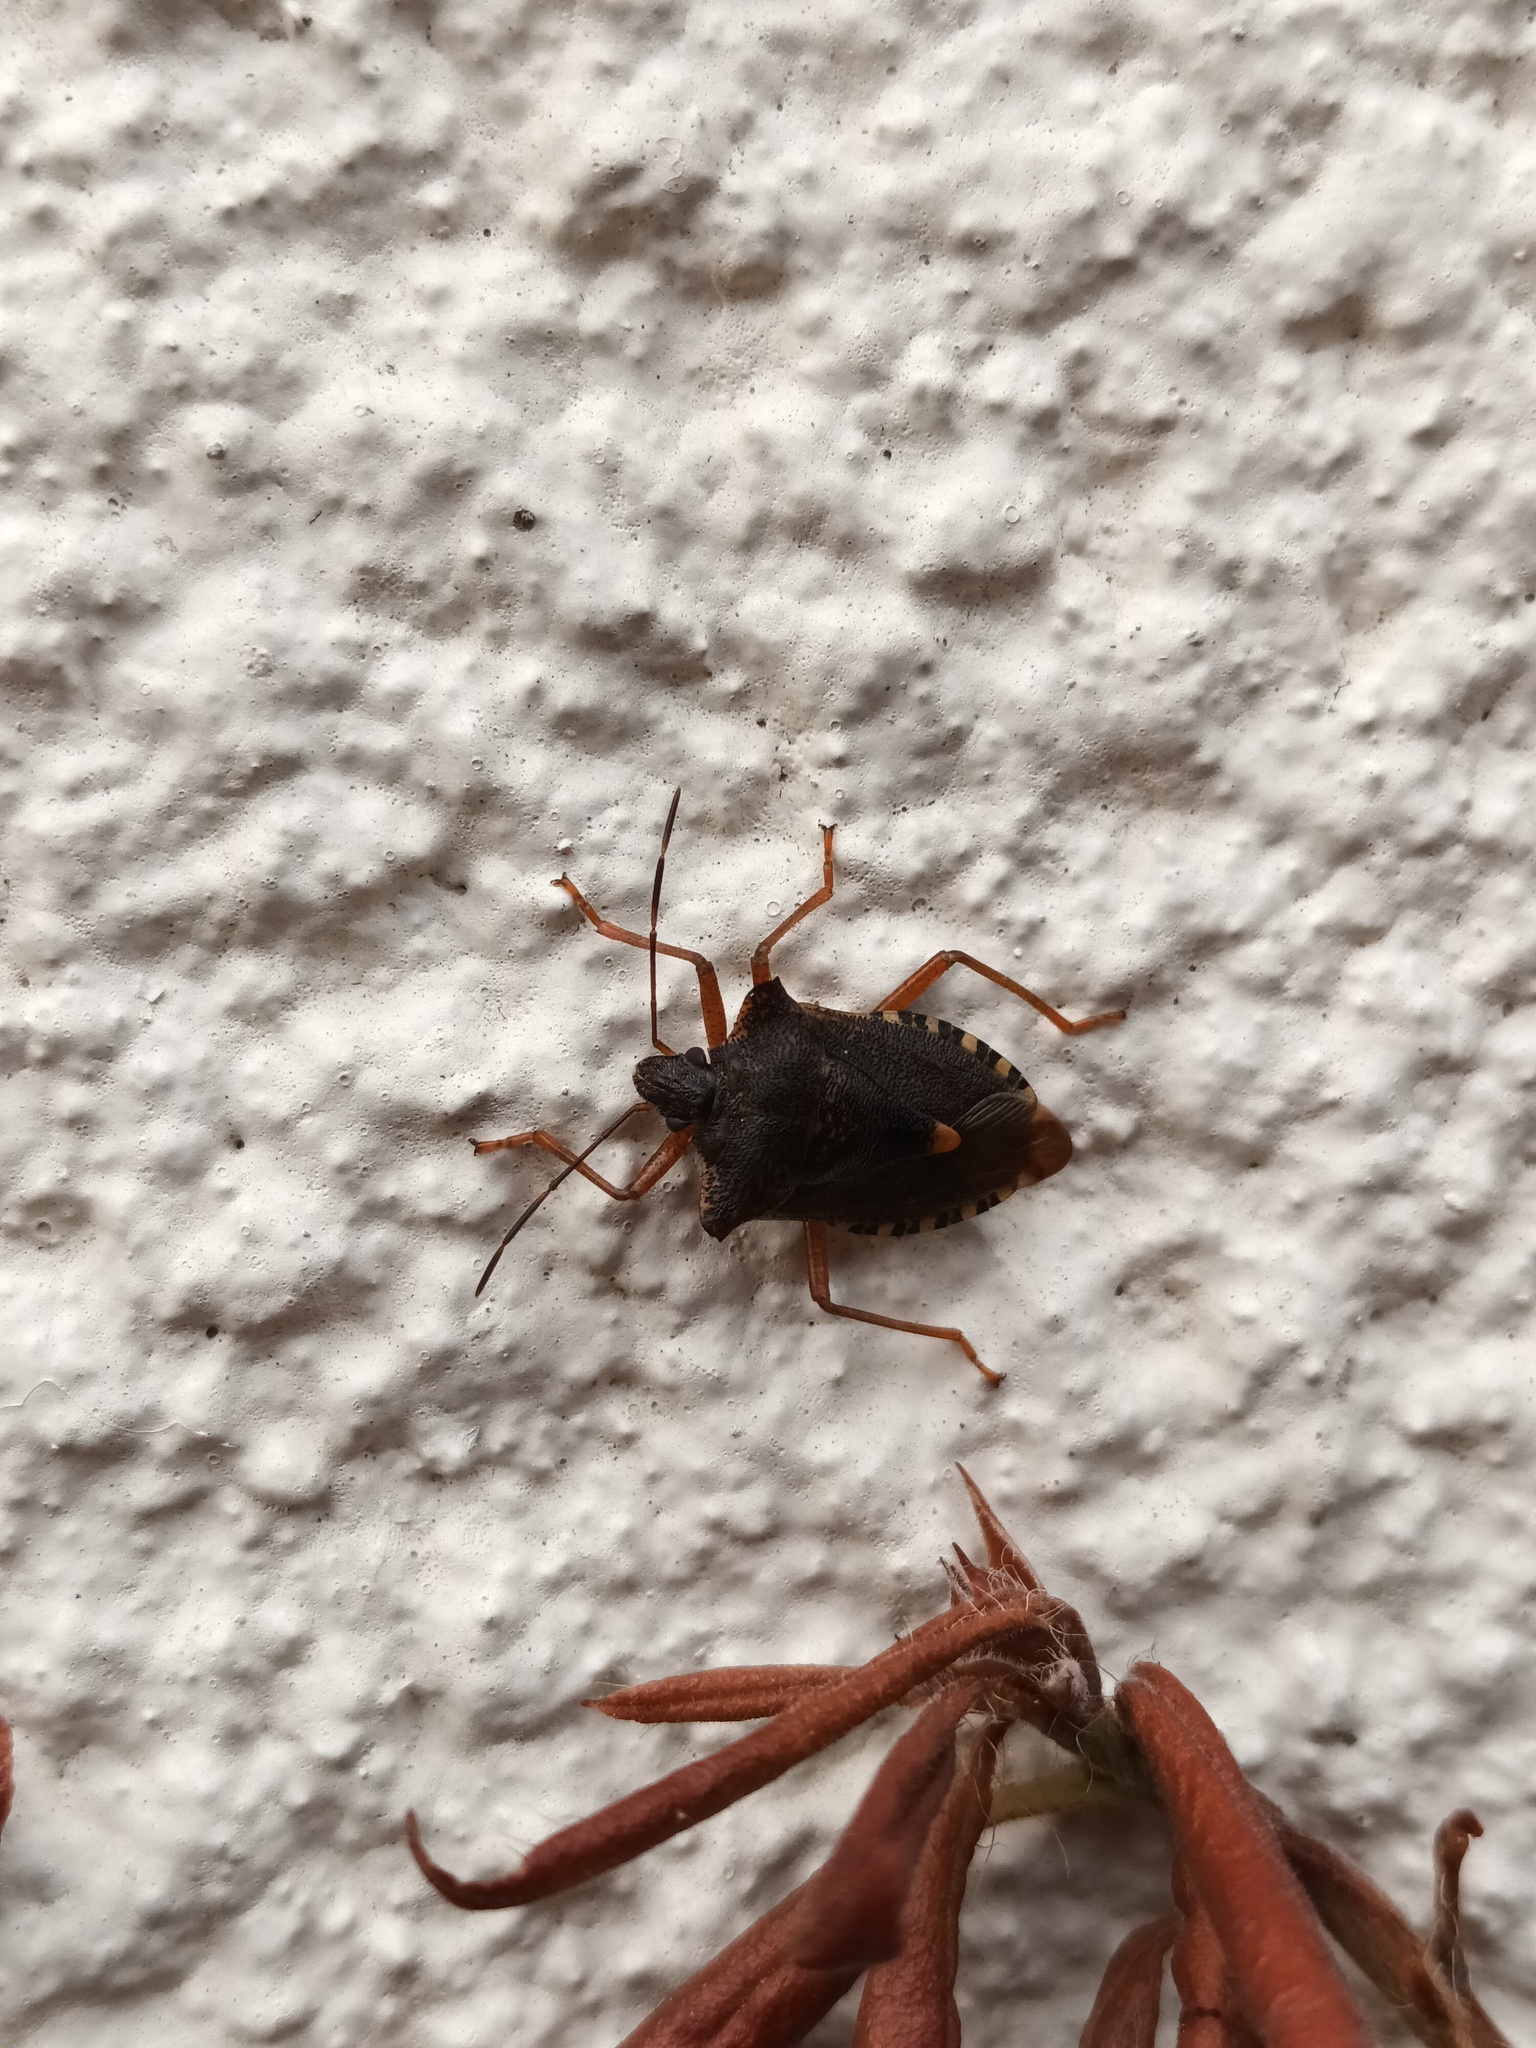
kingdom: Animalia
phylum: Arthropoda
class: Insecta
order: Hemiptera
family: Pentatomidae
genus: Pentatoma
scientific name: Pentatoma rufipes
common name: Forest bug
